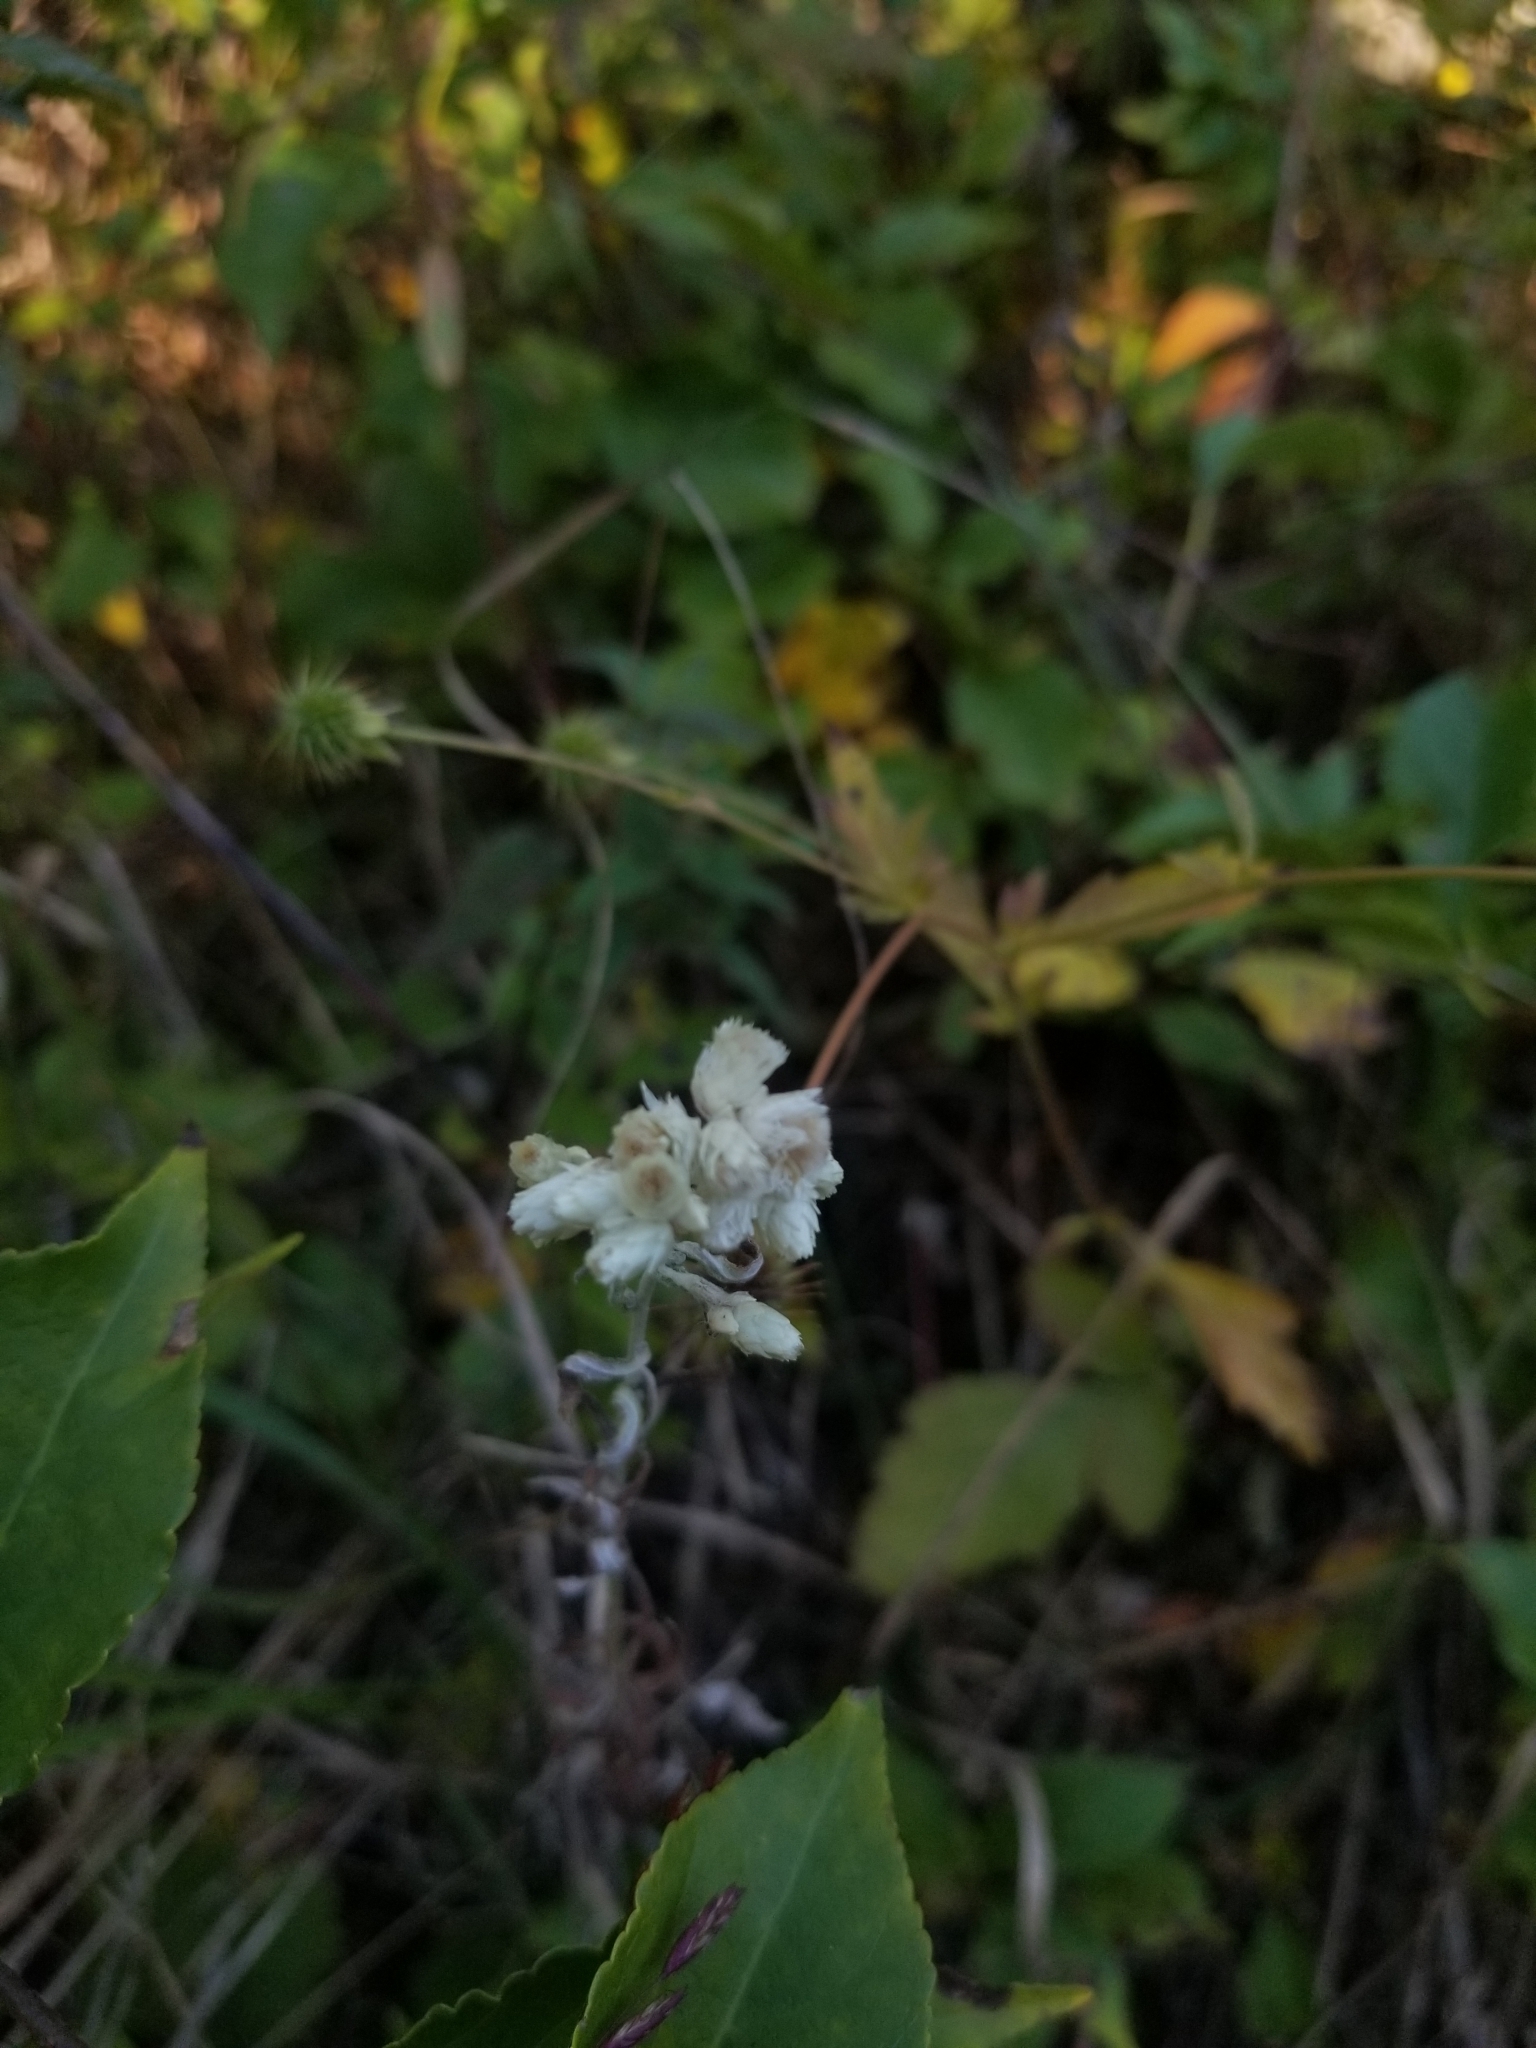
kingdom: Plantae
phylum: Tracheophyta
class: Magnoliopsida
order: Asterales
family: Asteraceae
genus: Pseudognaphalium
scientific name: Pseudognaphalium obtusifolium
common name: Eastern rabbit-tobacco
